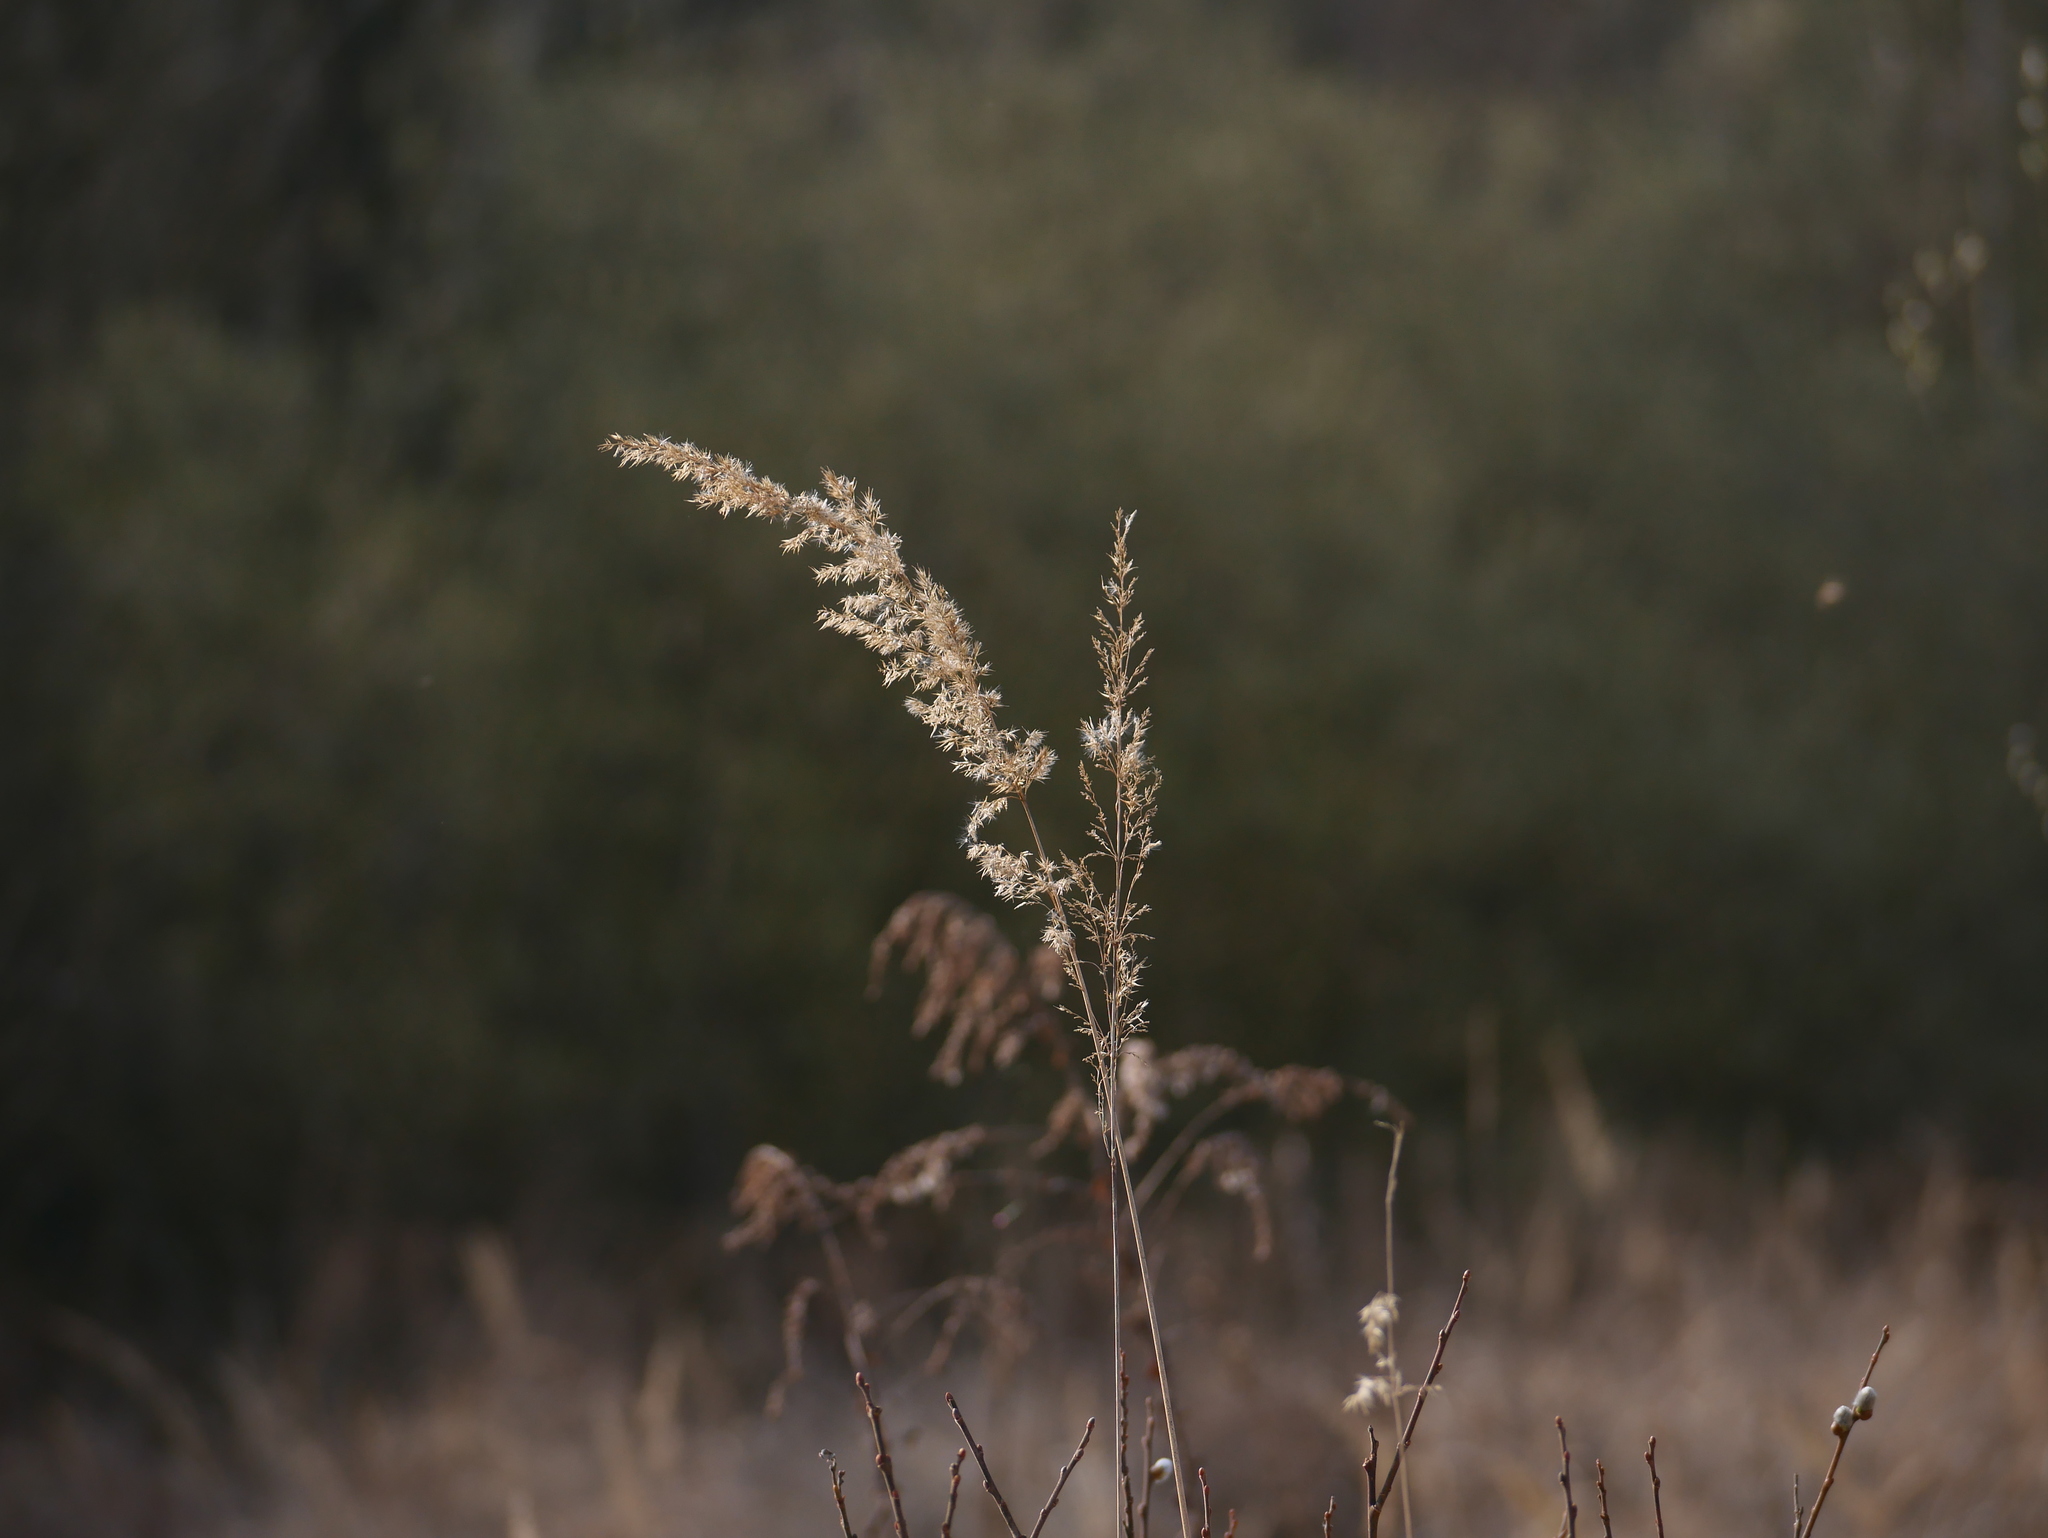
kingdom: Plantae
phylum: Tracheophyta
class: Liliopsida
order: Poales
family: Poaceae
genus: Calamagrostis
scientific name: Calamagrostis epigejos
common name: Wood small-reed
